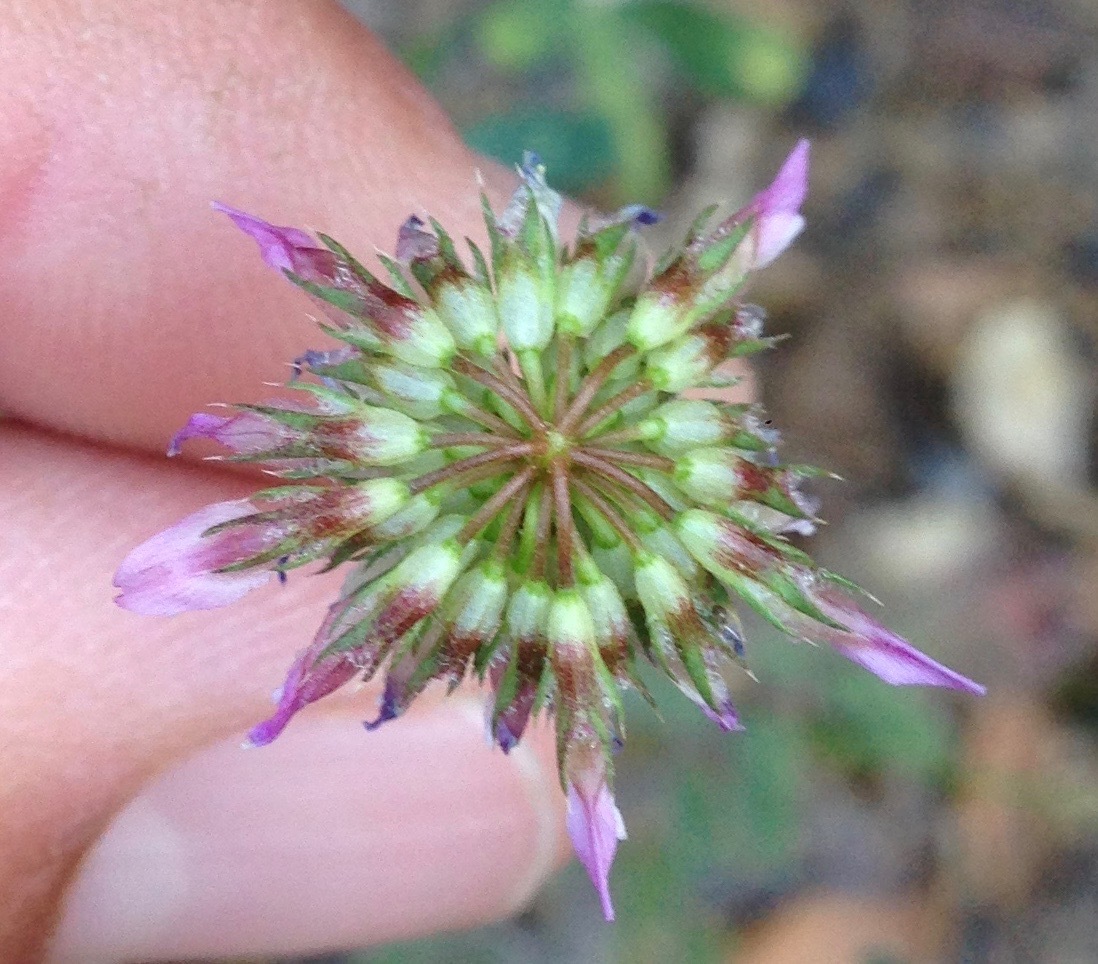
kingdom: Plantae
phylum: Tracheophyta
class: Magnoliopsida
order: Fabales
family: Fabaceae
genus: Trifolium
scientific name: Trifolium ciliolatum
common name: Foothill clover
